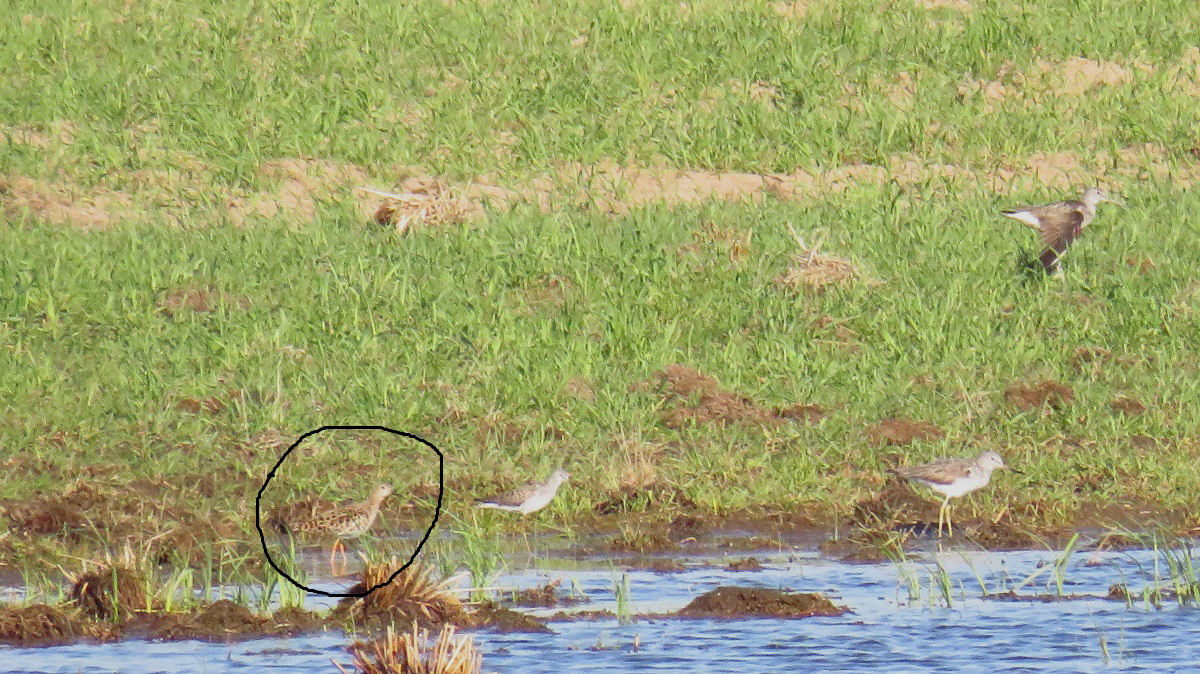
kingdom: Animalia
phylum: Chordata
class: Aves
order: Charadriiformes
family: Scolopacidae
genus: Calidris
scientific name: Calidris pugnax
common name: Ruff
